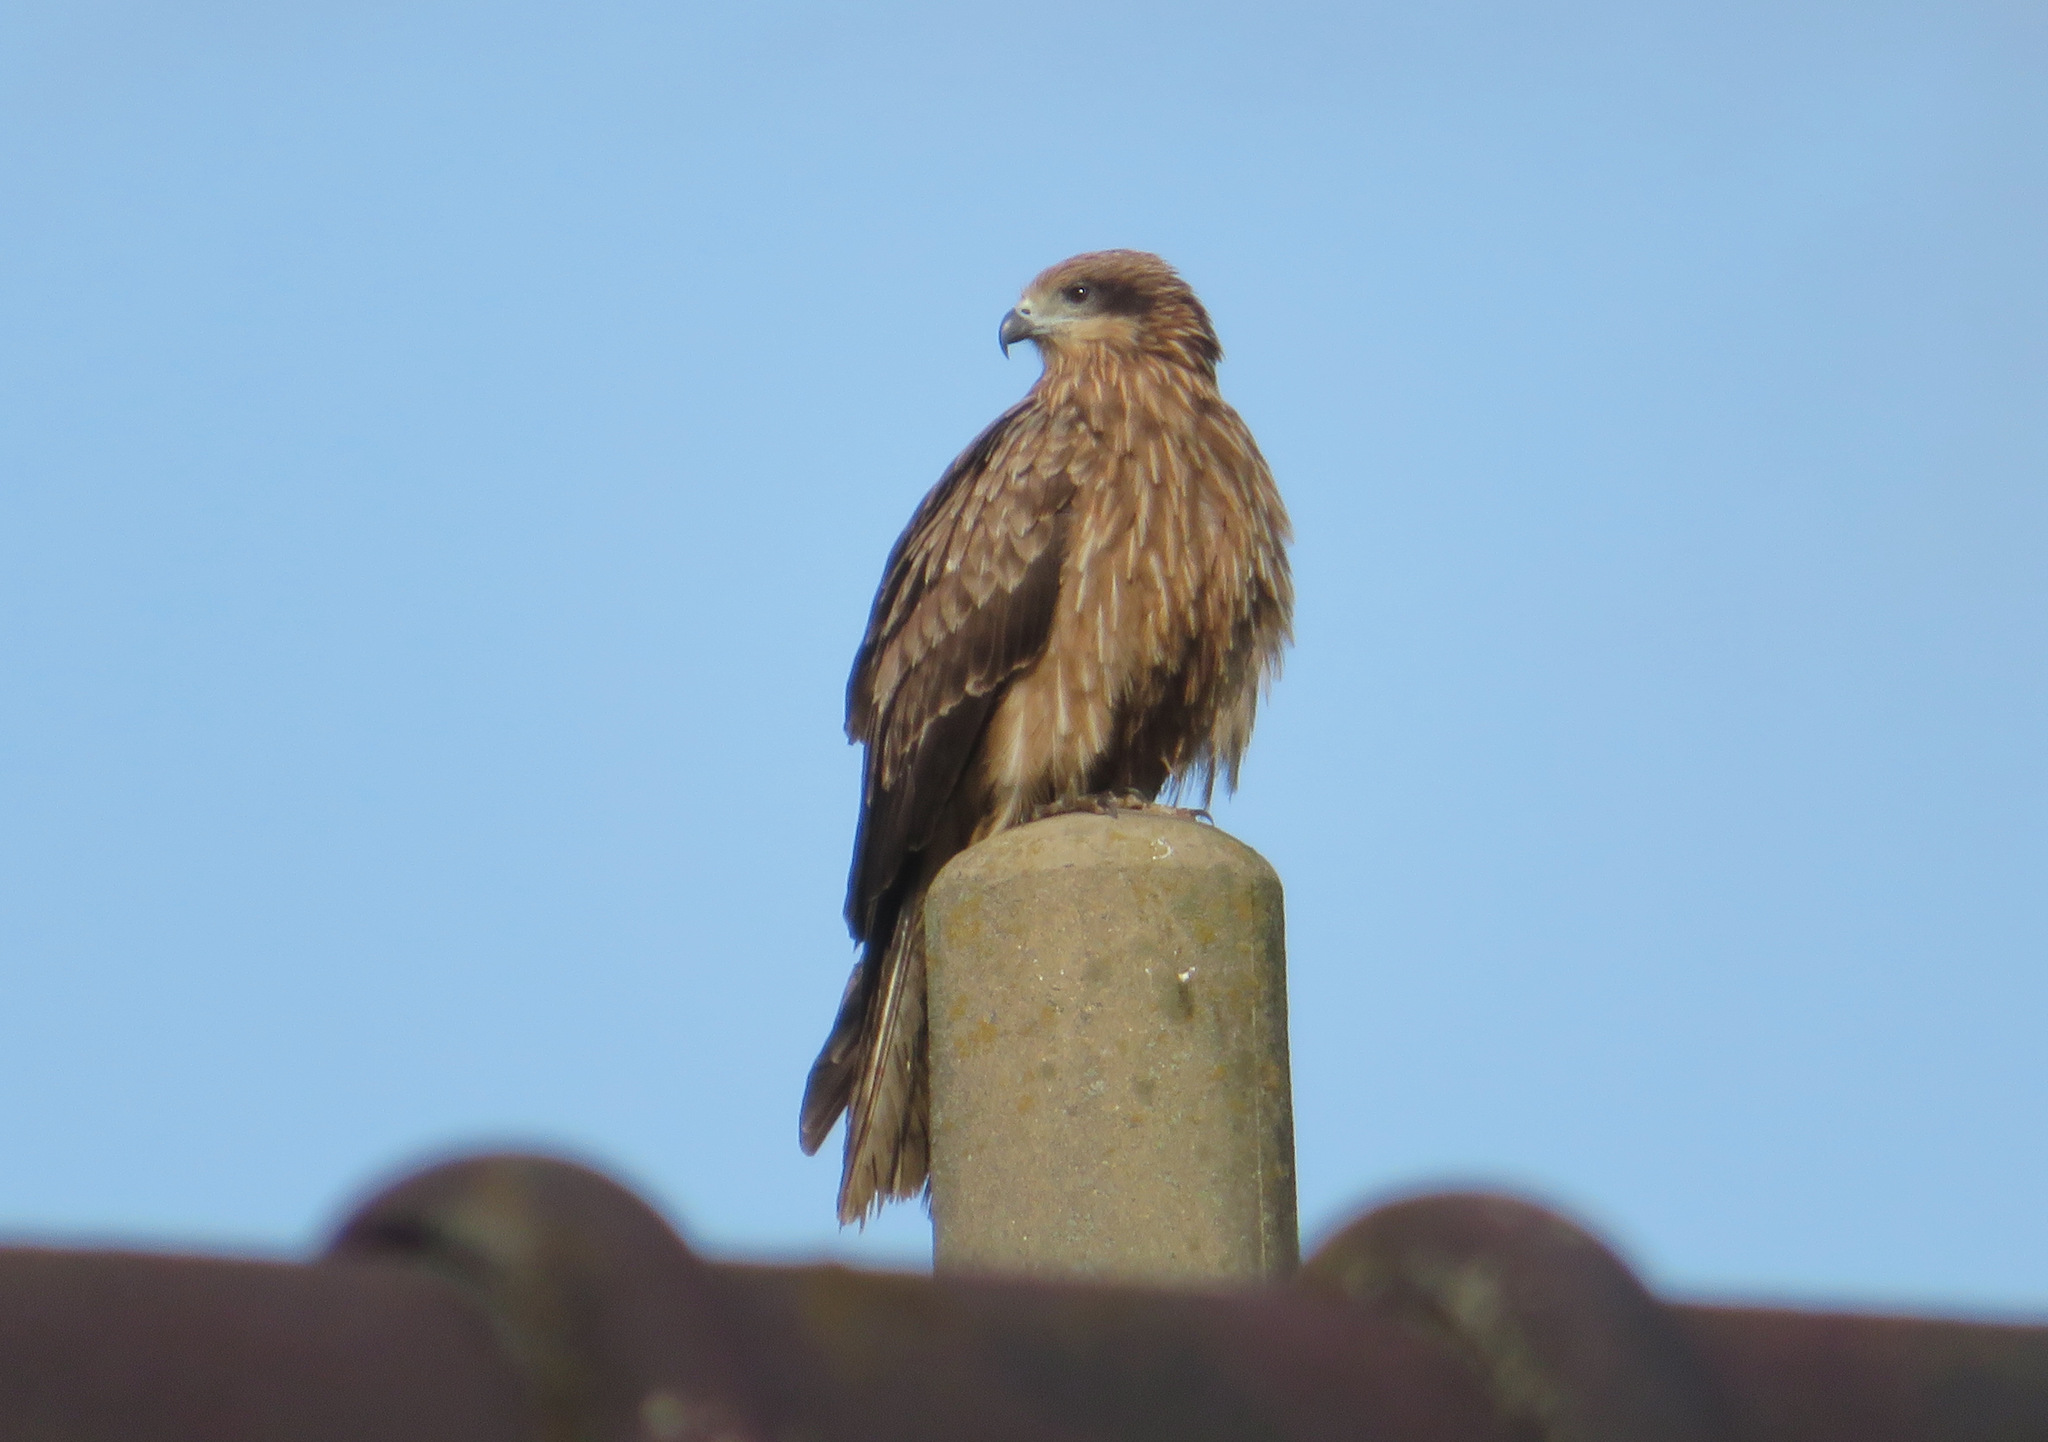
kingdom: Animalia
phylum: Chordata
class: Aves
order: Accipitriformes
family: Accipitridae
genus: Milvus
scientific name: Milvus migrans
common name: Black kite
